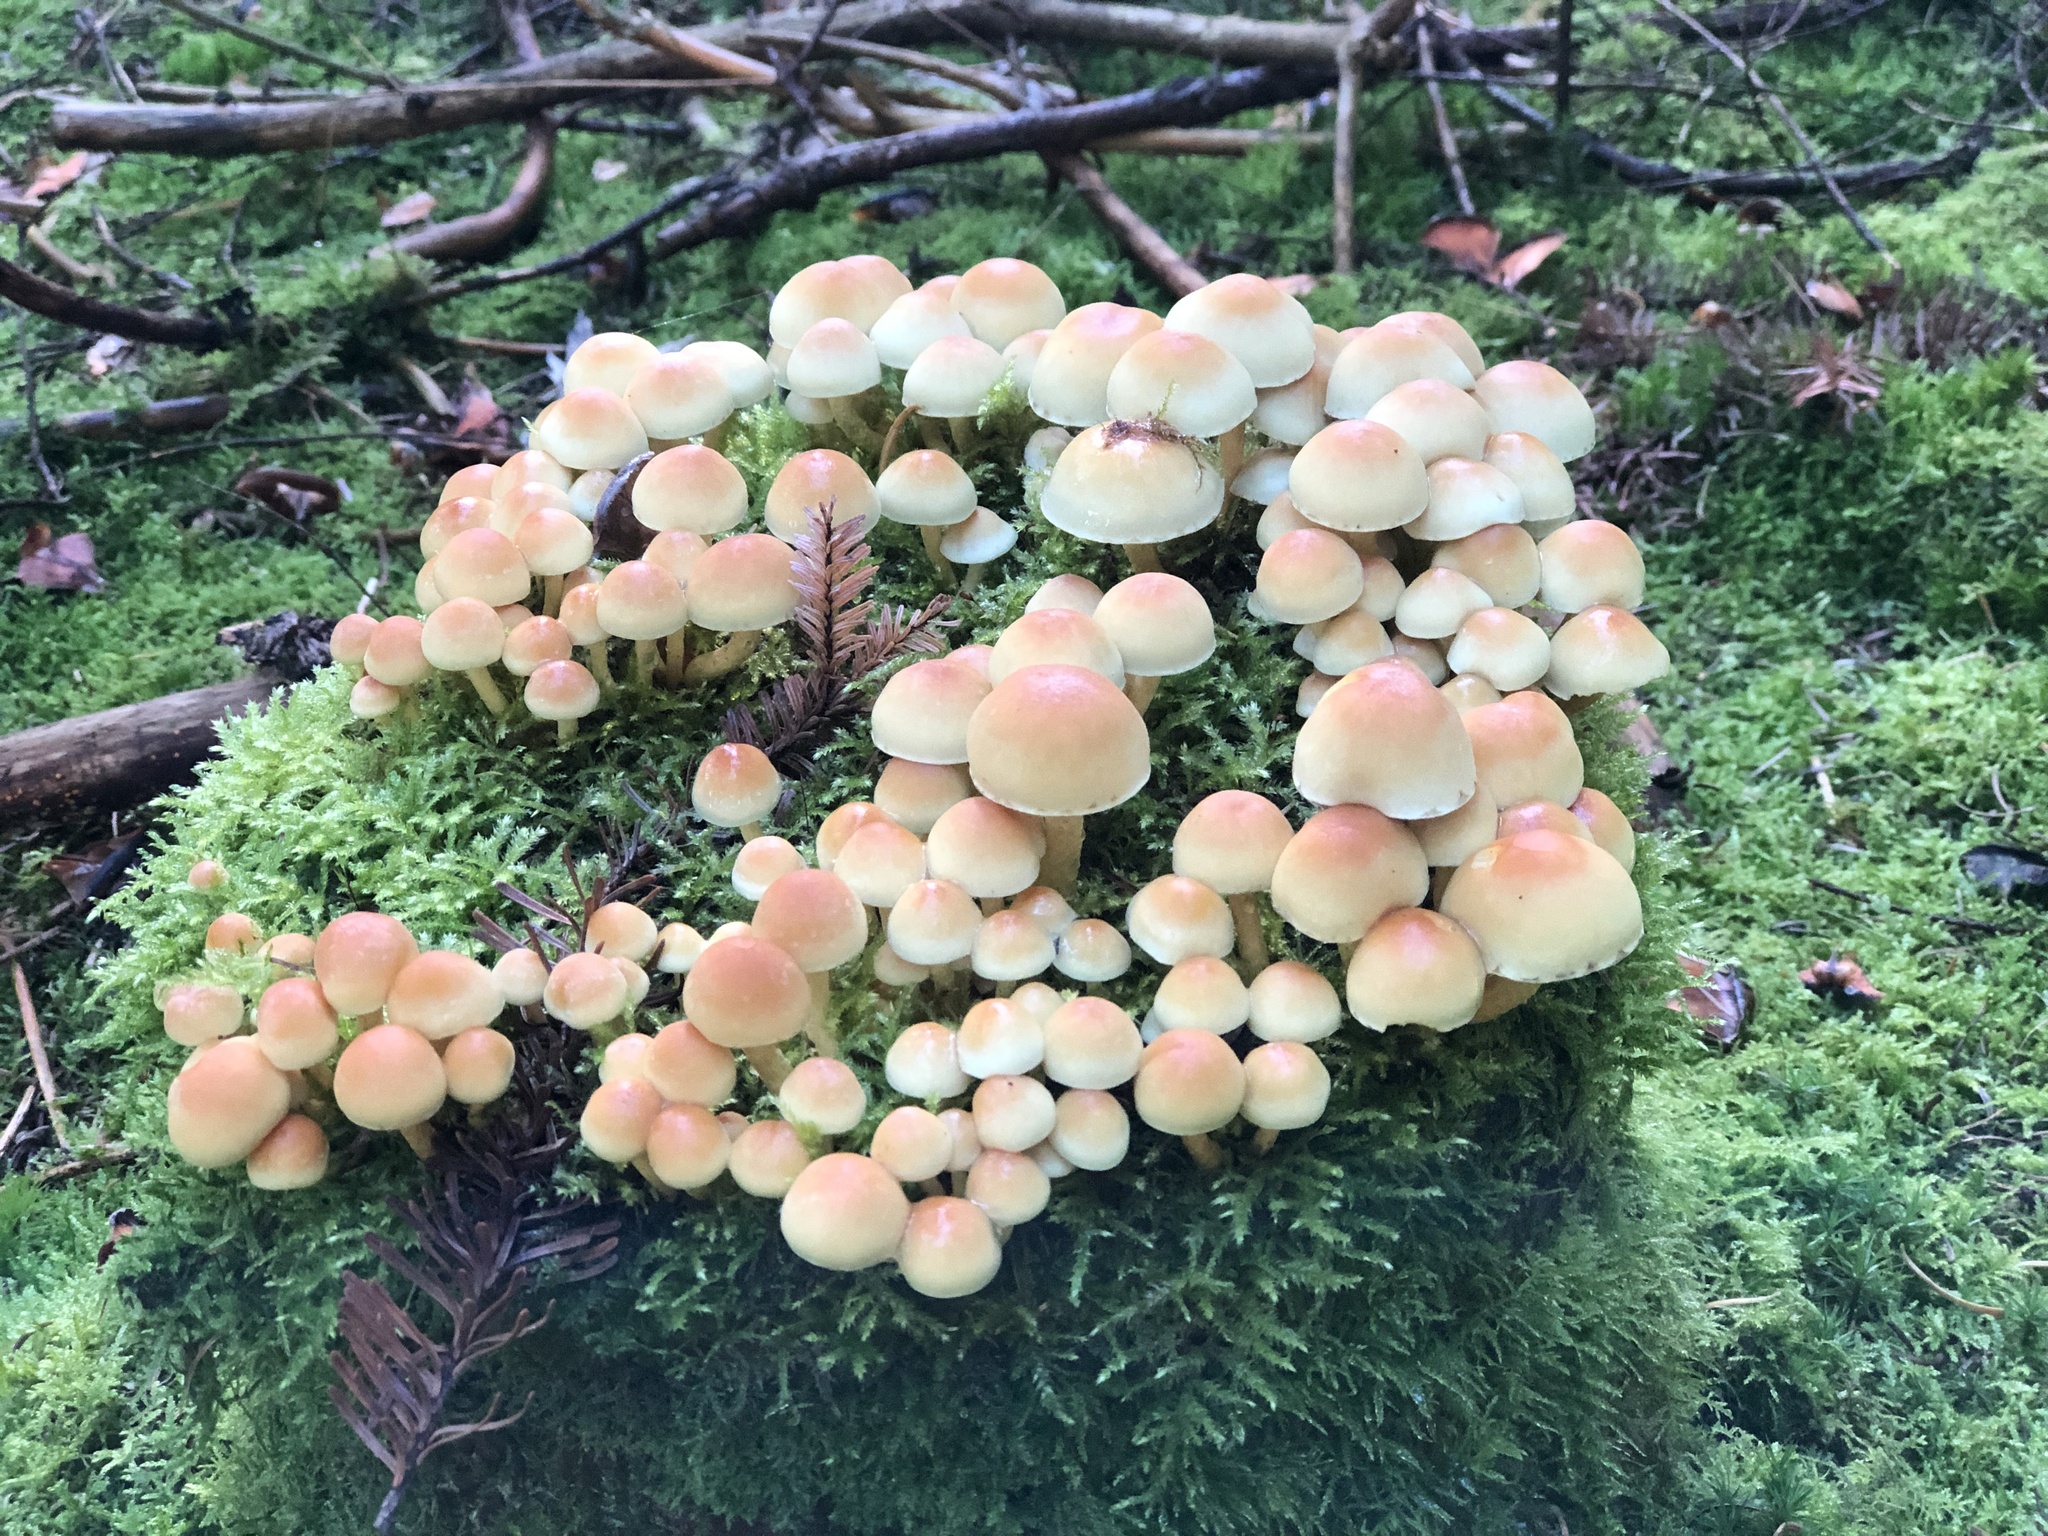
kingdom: Fungi
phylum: Basidiomycota
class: Agaricomycetes
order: Agaricales
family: Strophariaceae
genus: Hypholoma
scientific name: Hypholoma fasciculare
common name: Sulphur tuft
